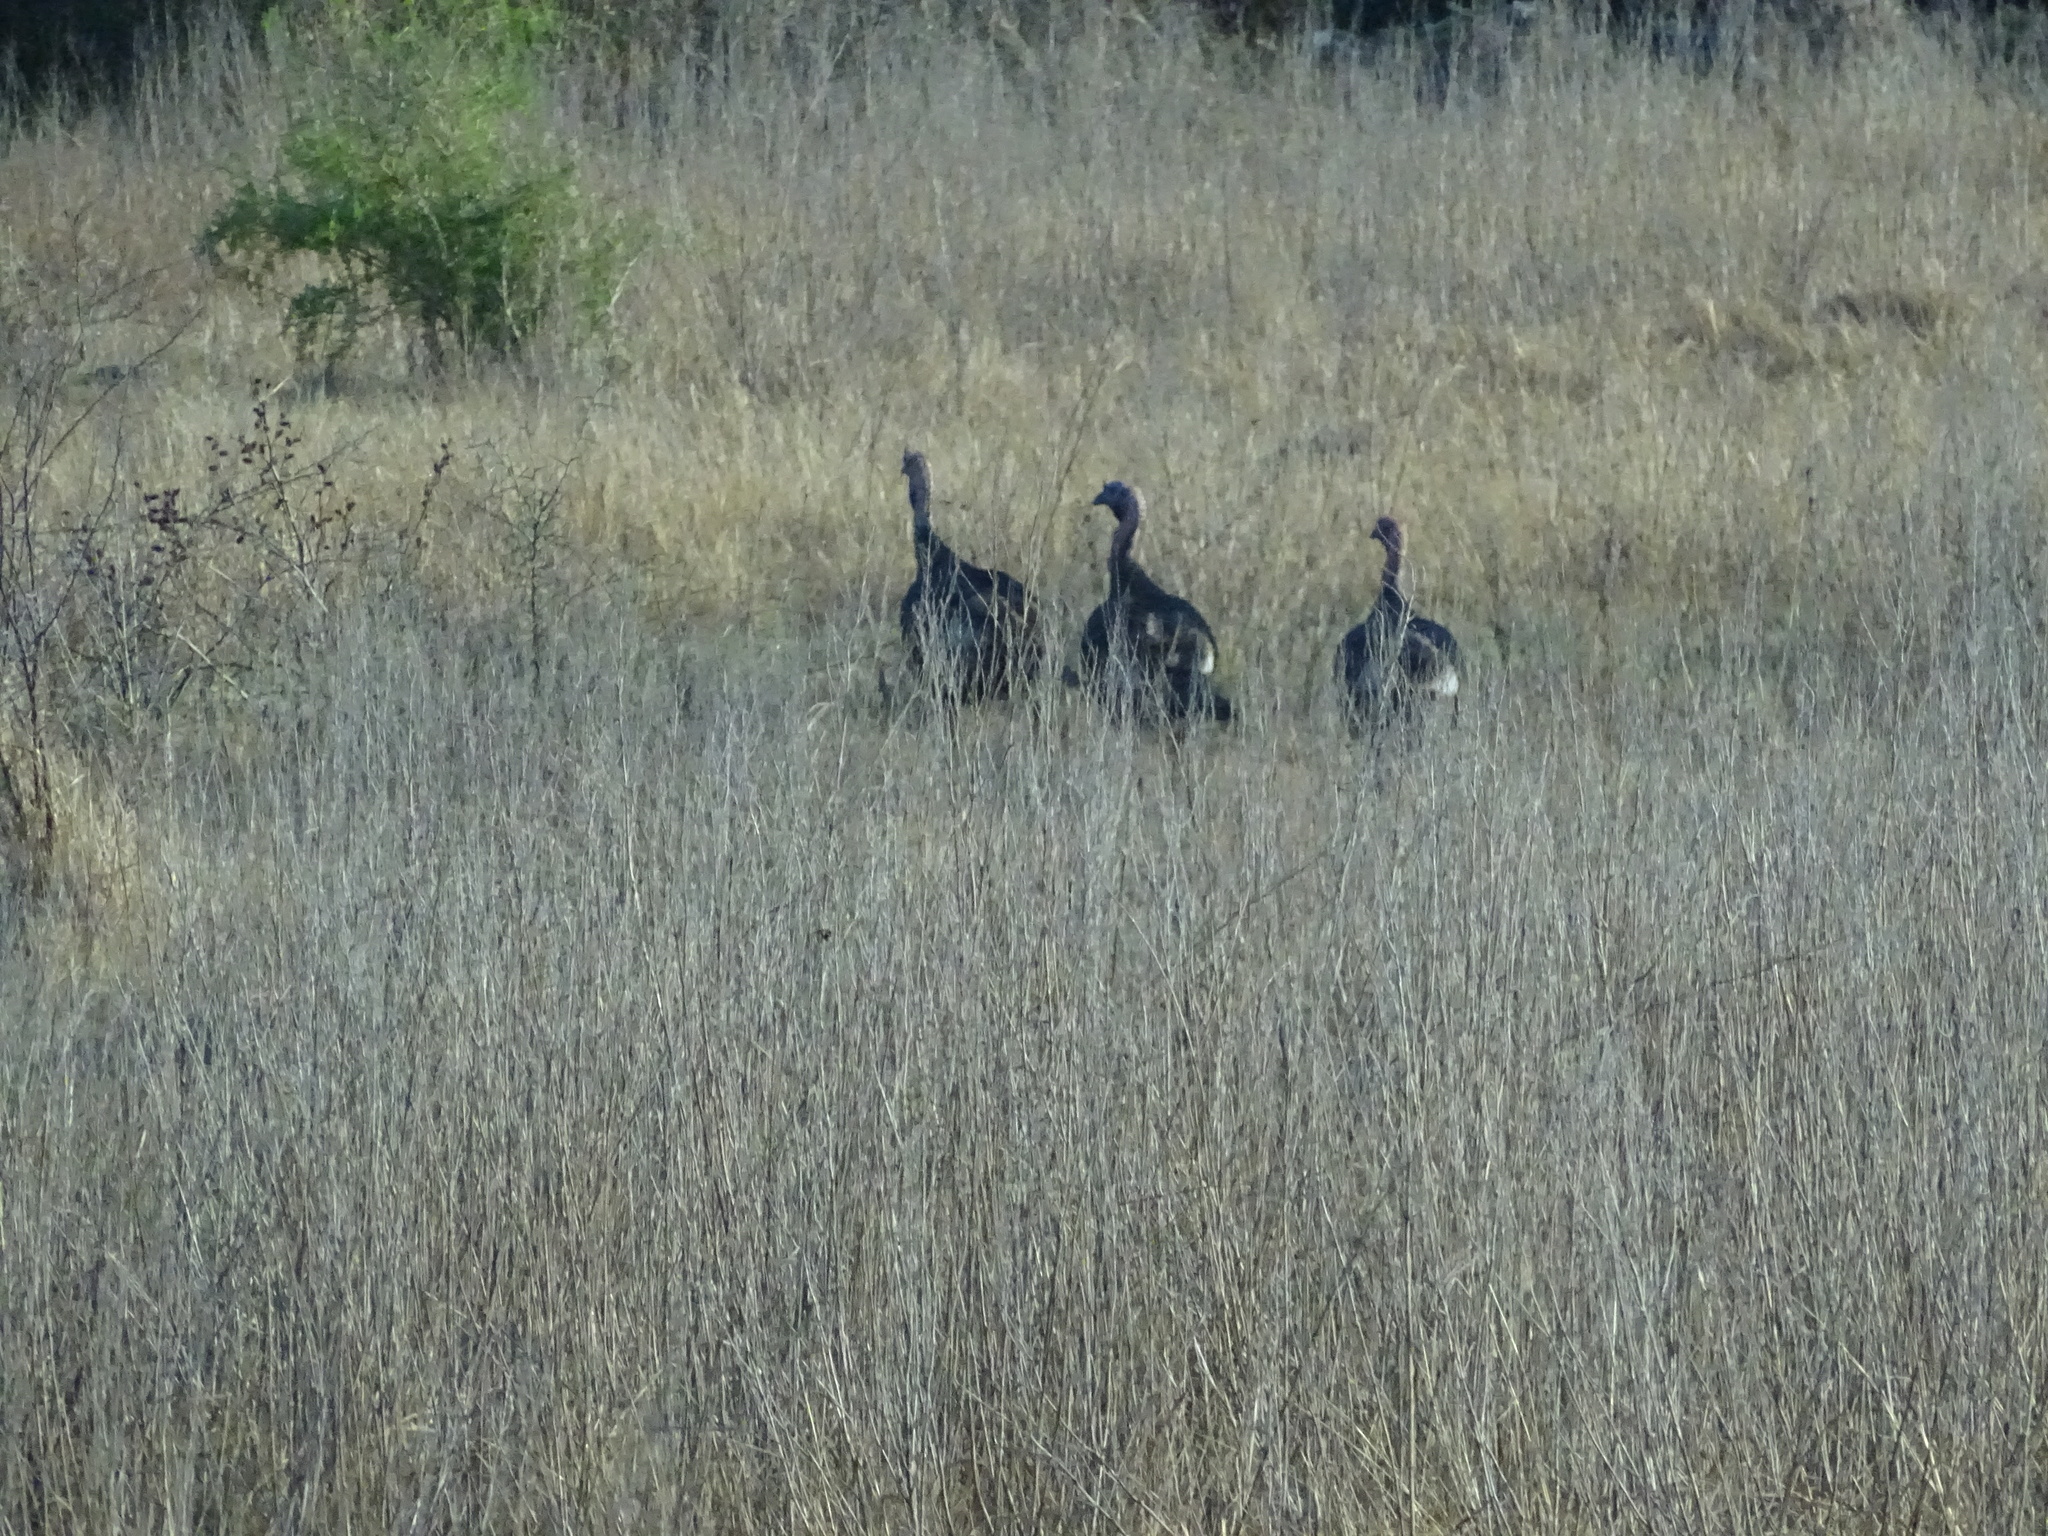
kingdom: Animalia
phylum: Chordata
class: Aves
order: Galliformes
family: Phasianidae
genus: Meleagris
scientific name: Meleagris gallopavo
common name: Wild turkey
